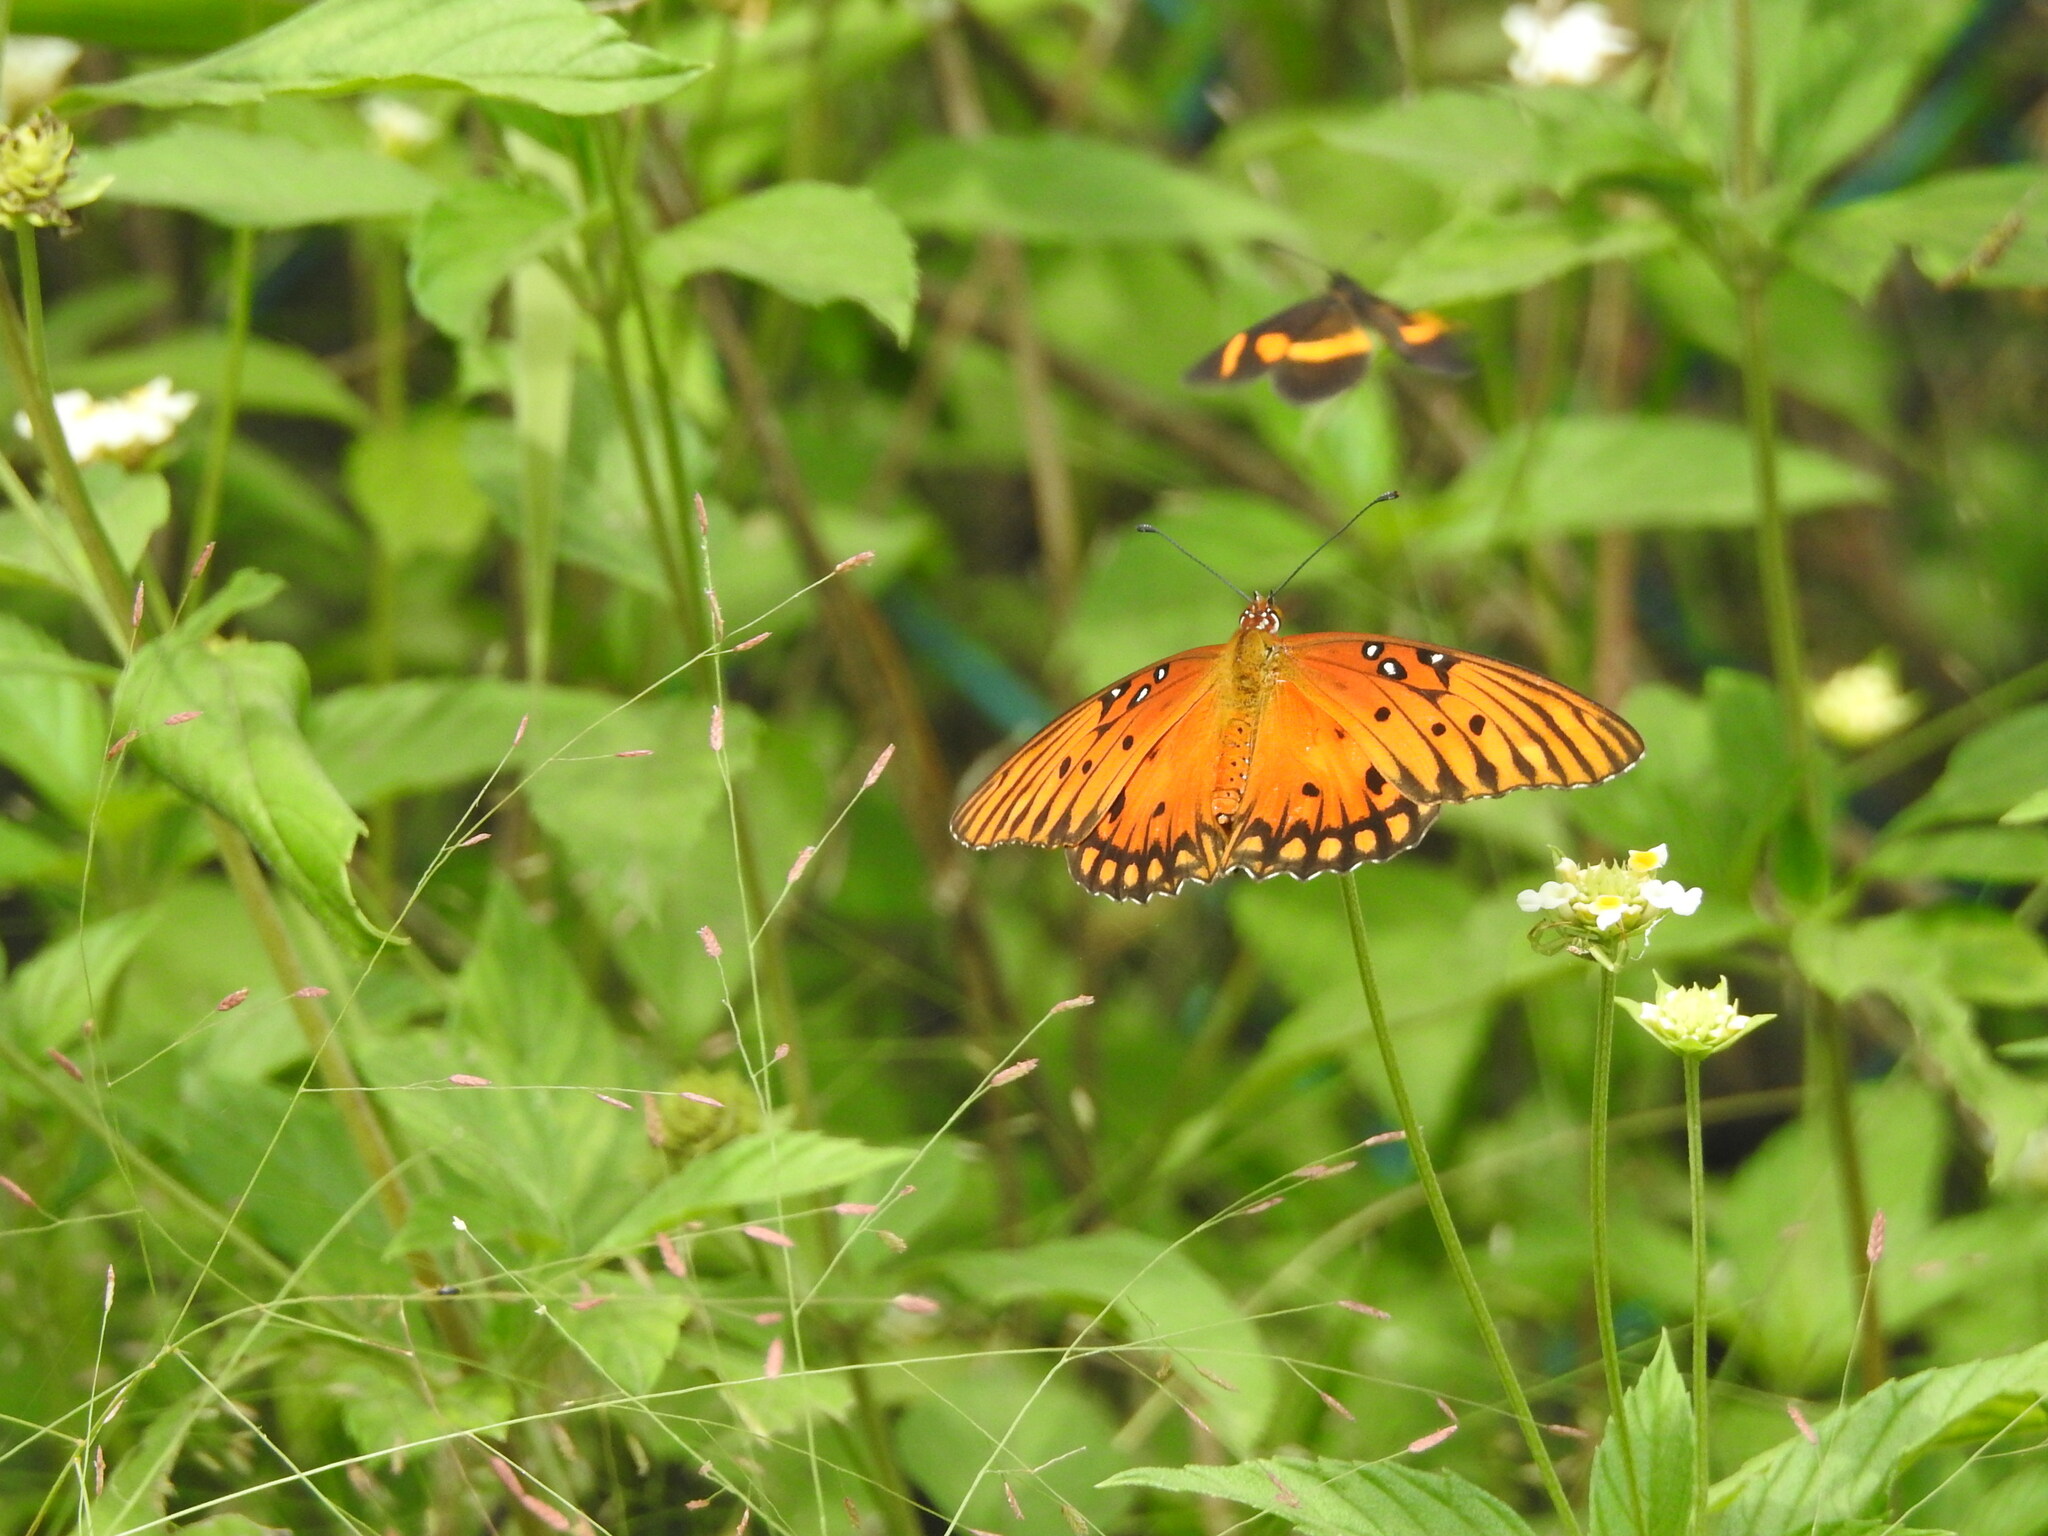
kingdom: Animalia
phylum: Arthropoda
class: Insecta
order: Lepidoptera
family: Nymphalidae
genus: Dione
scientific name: Dione vanillae
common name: Gulf fritillary
